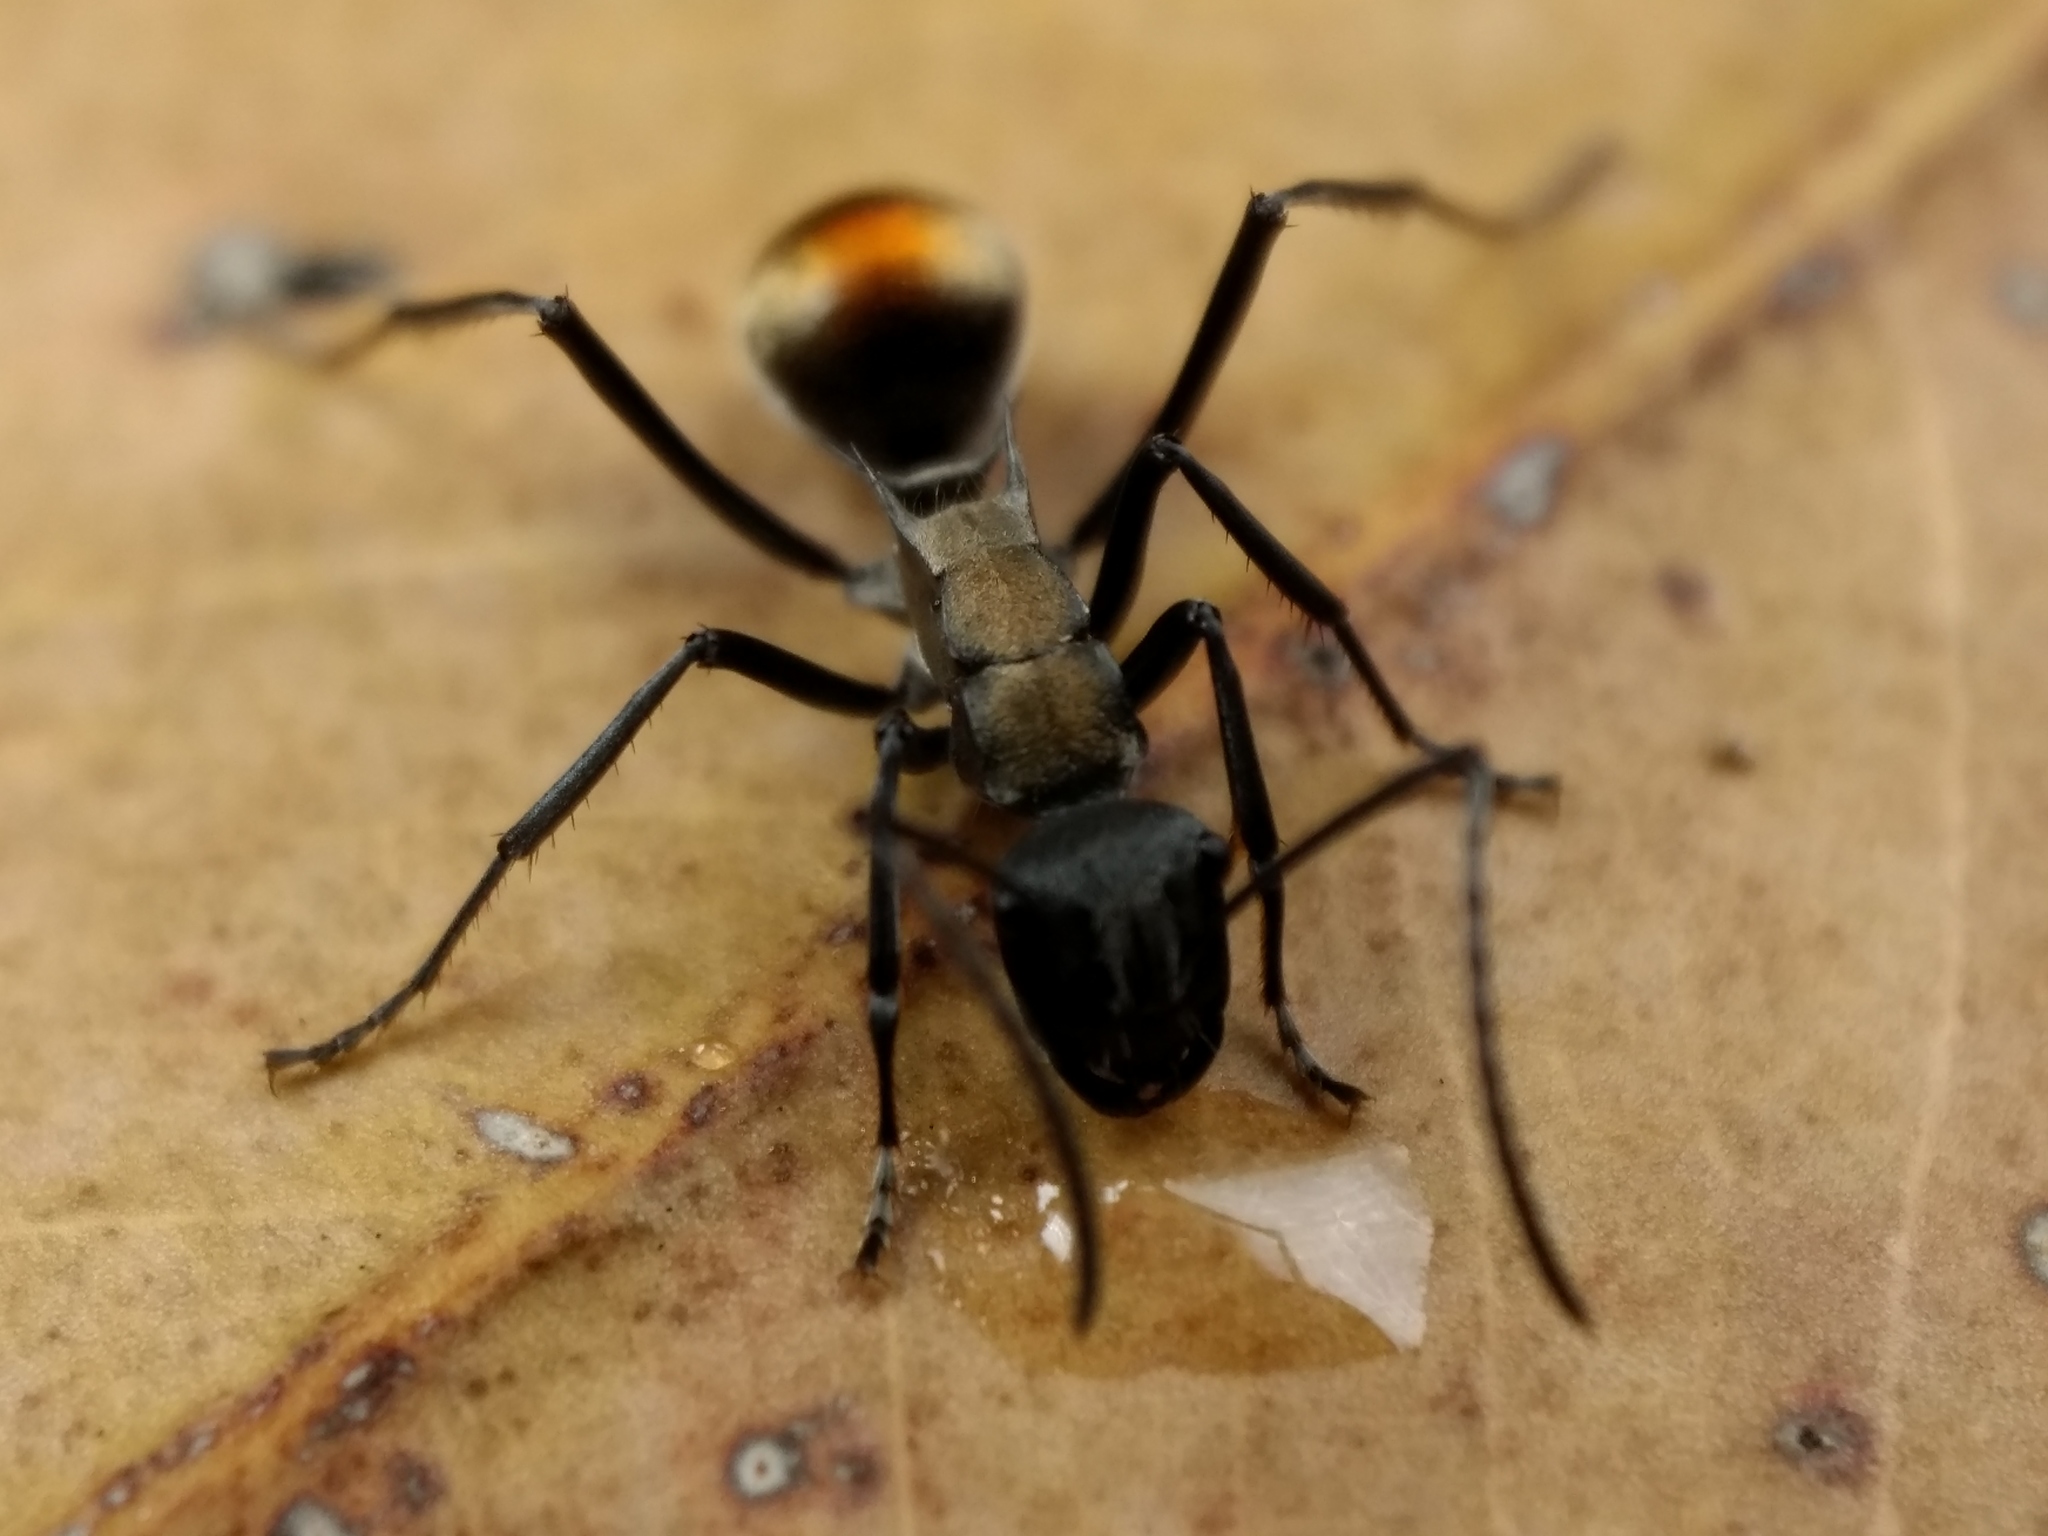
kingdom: Animalia
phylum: Arthropoda
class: Insecta
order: Hymenoptera
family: Formicidae
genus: Polyrhachis
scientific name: Polyrhachis angusta
